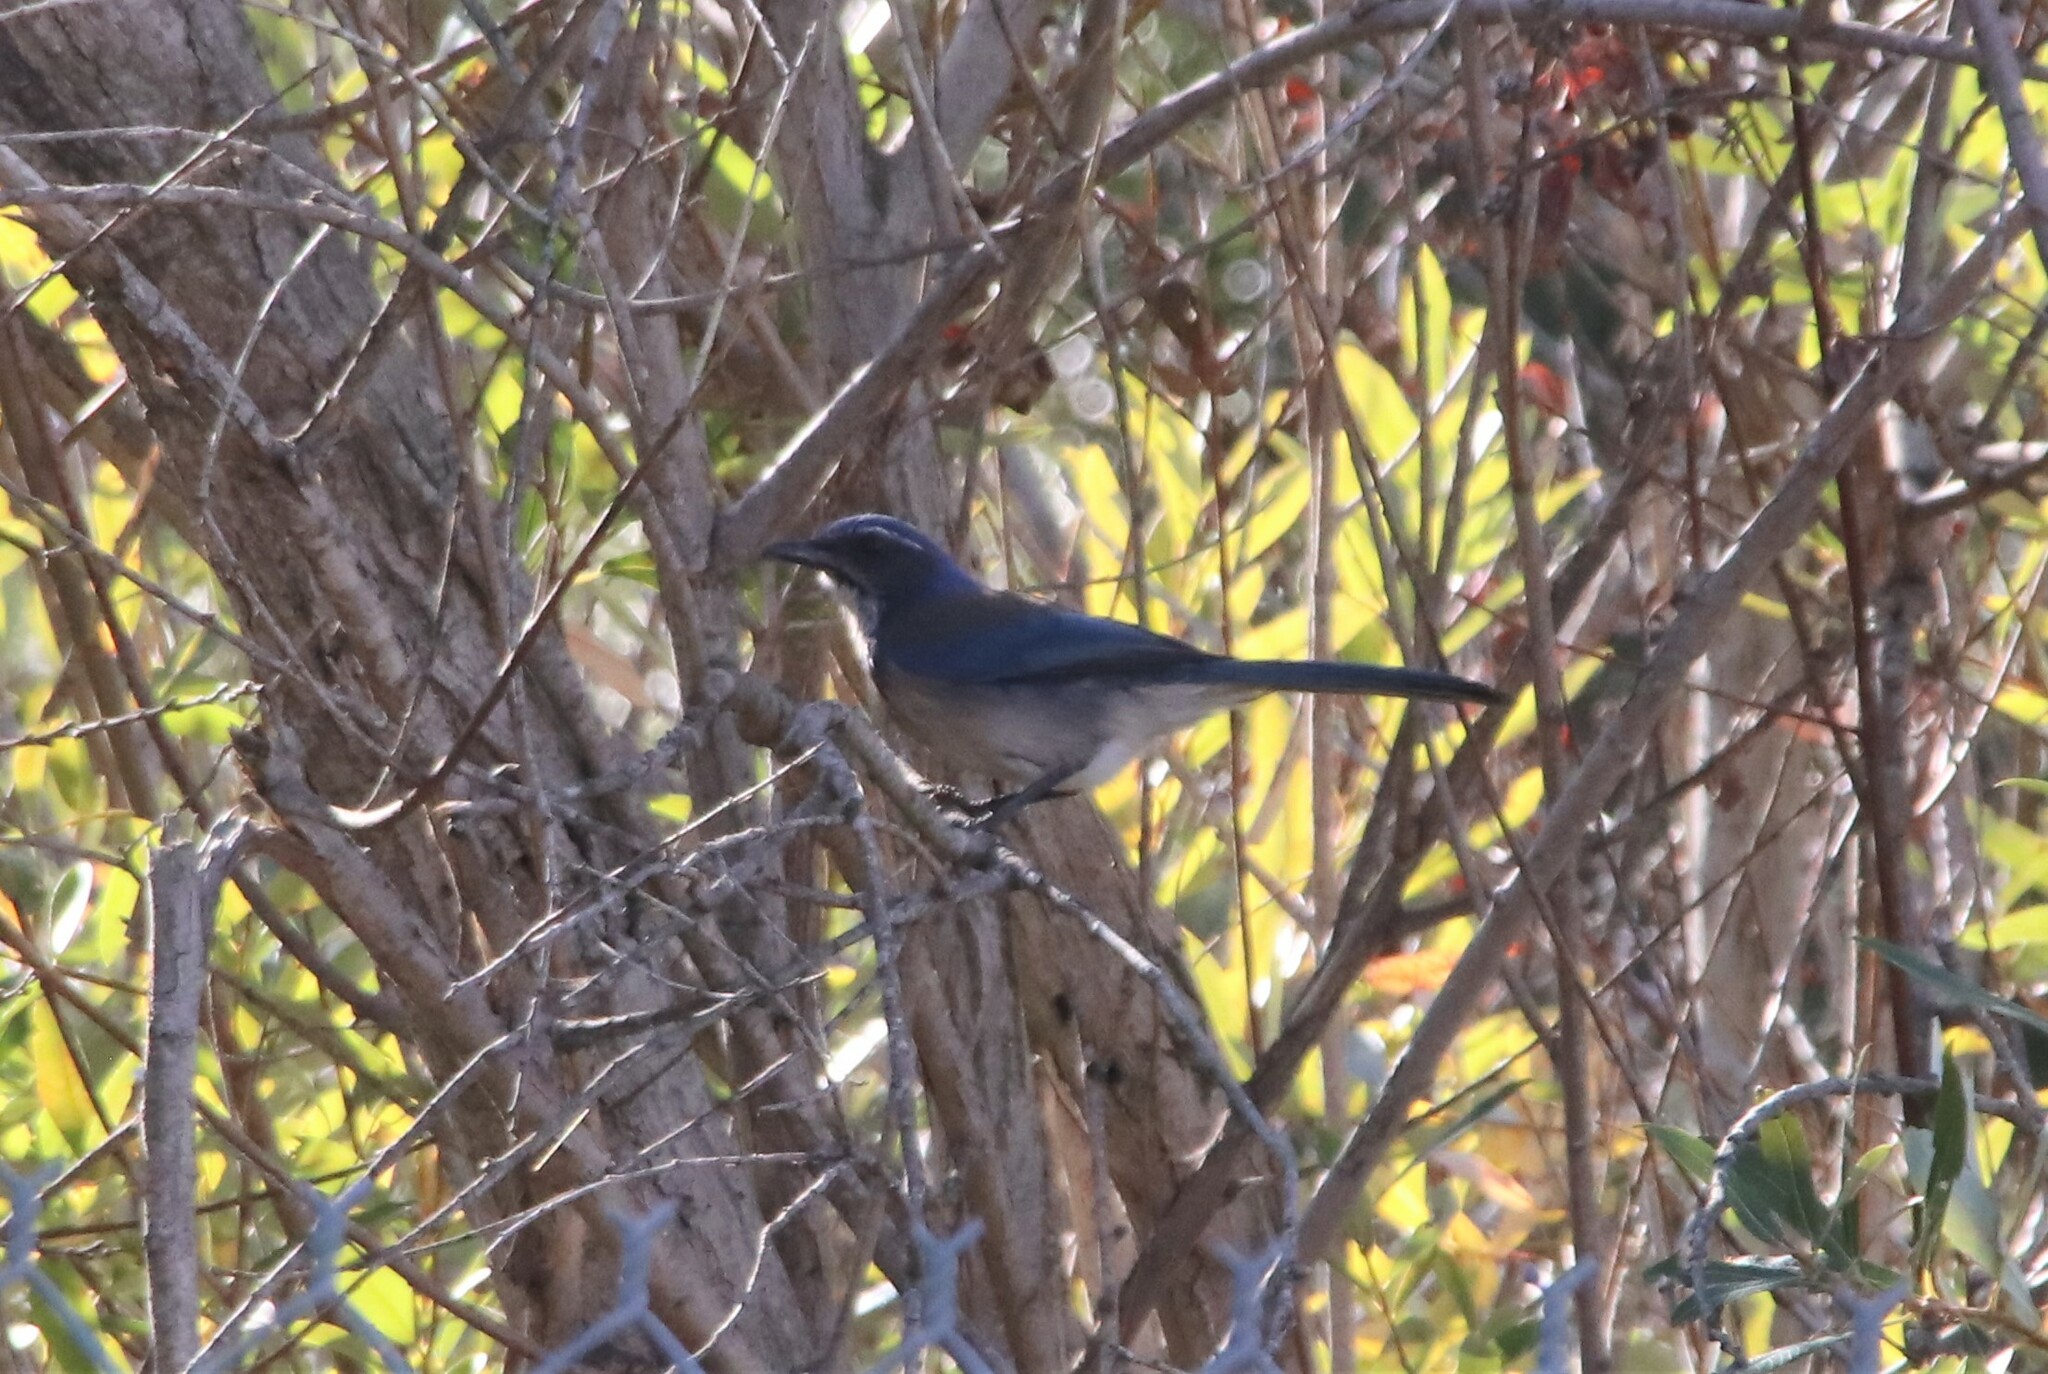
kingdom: Animalia
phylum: Chordata
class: Aves
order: Passeriformes
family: Corvidae
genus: Aphelocoma
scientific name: Aphelocoma californica
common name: California scrub-jay
